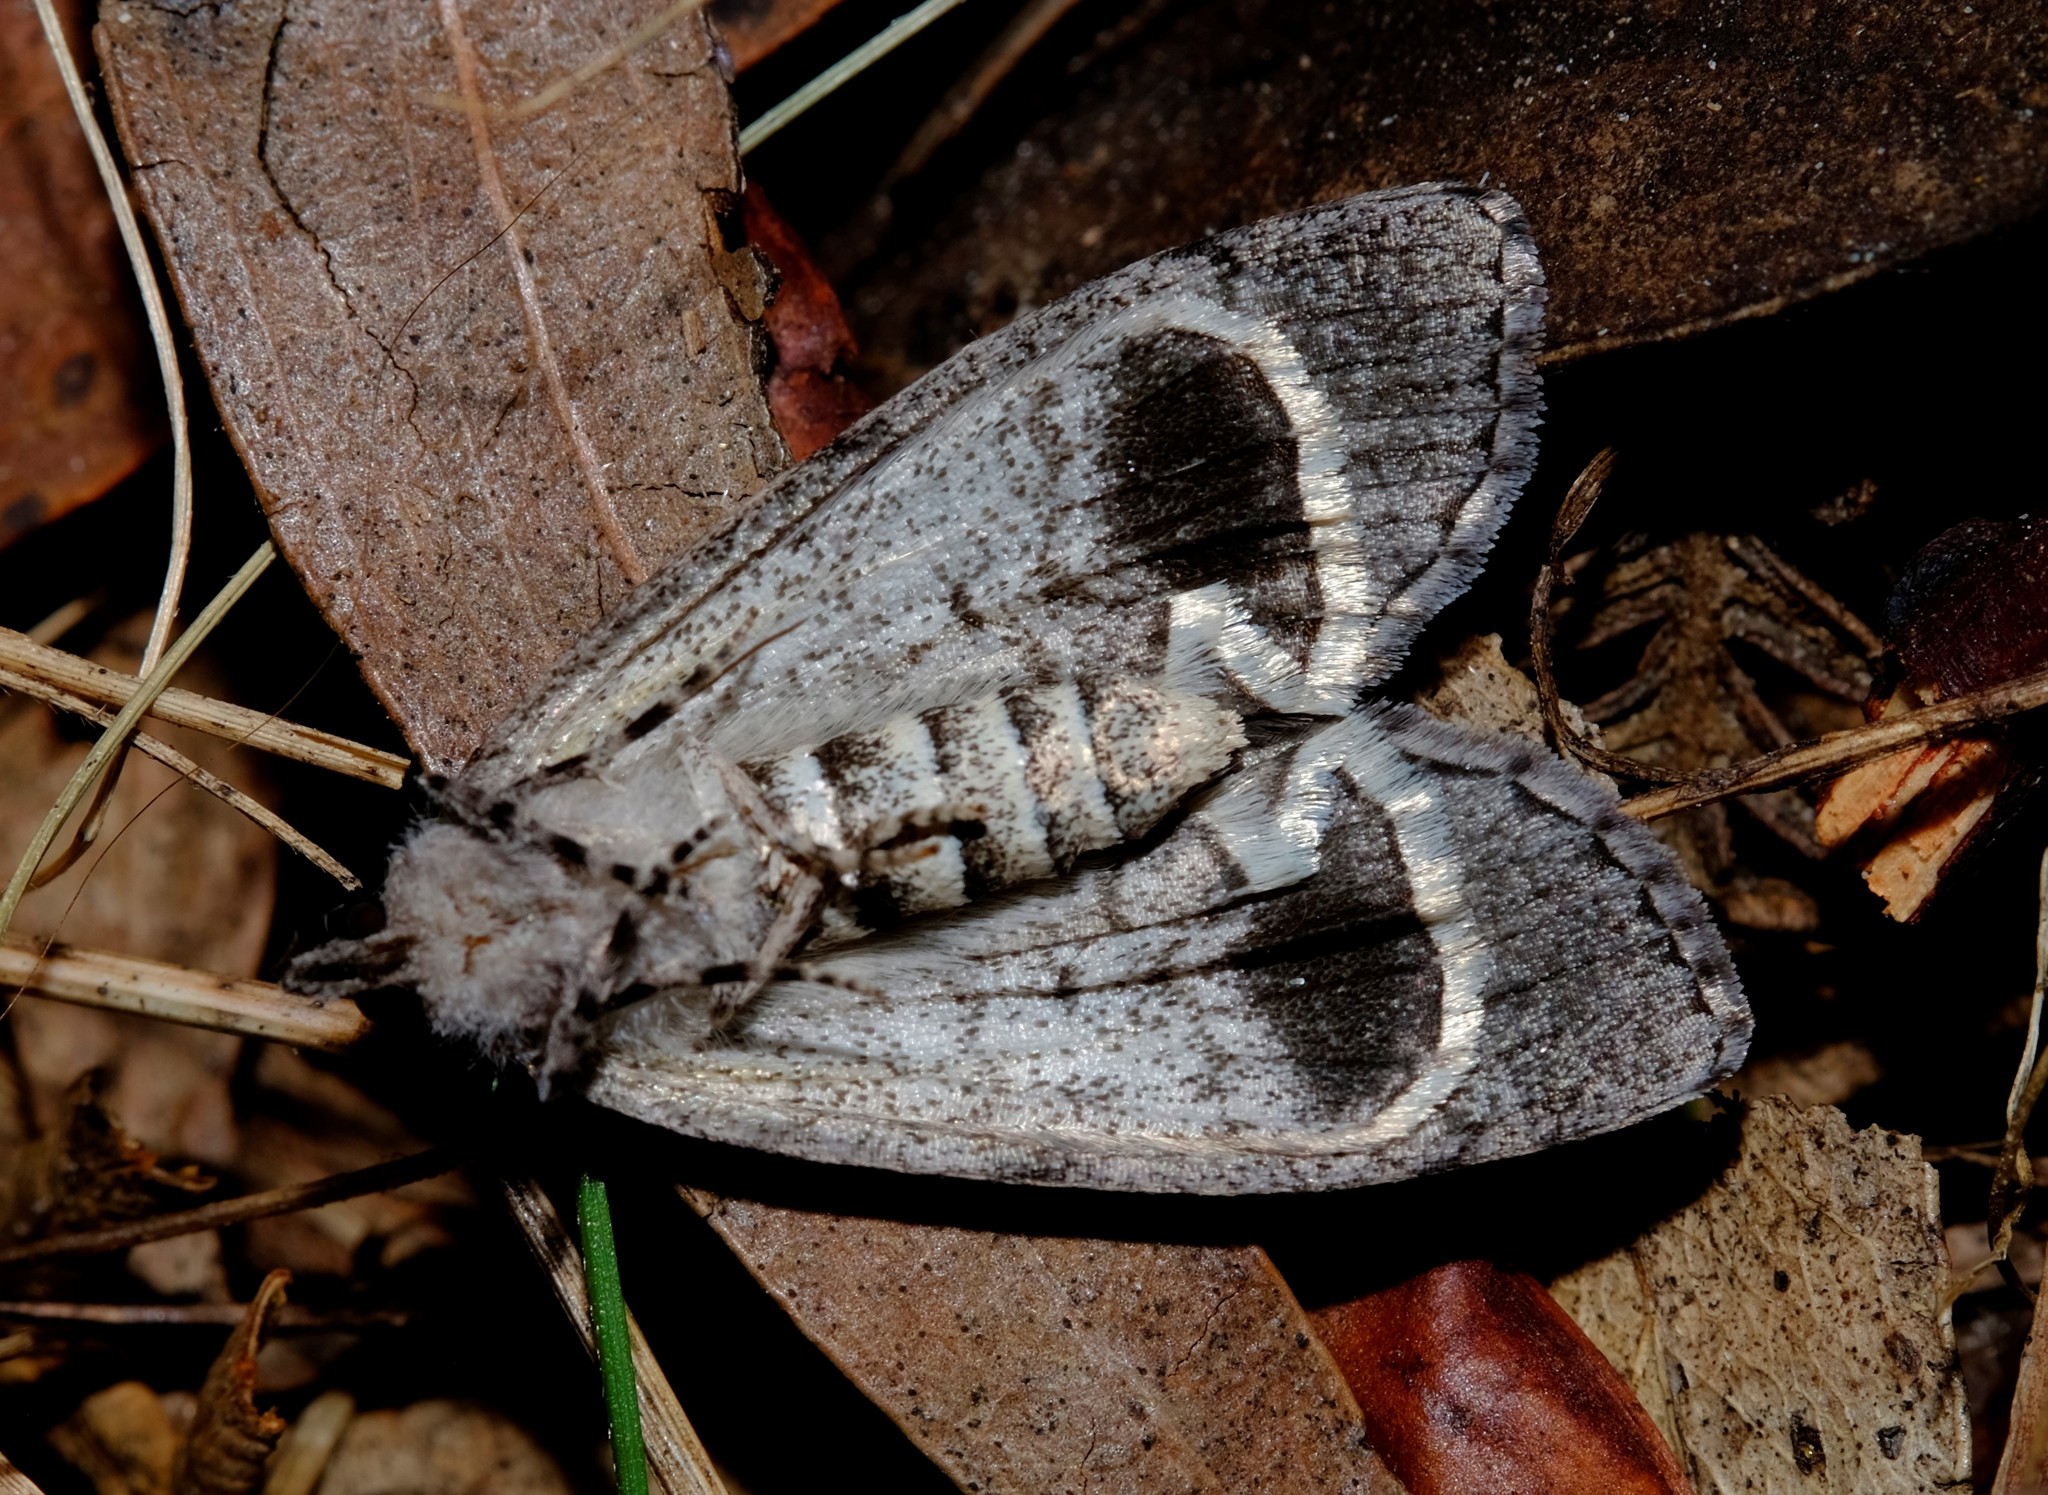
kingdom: Animalia
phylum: Arthropoda
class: Insecta
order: Lepidoptera
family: Geometridae
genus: Smyriodes
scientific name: Smyriodes trigramma
